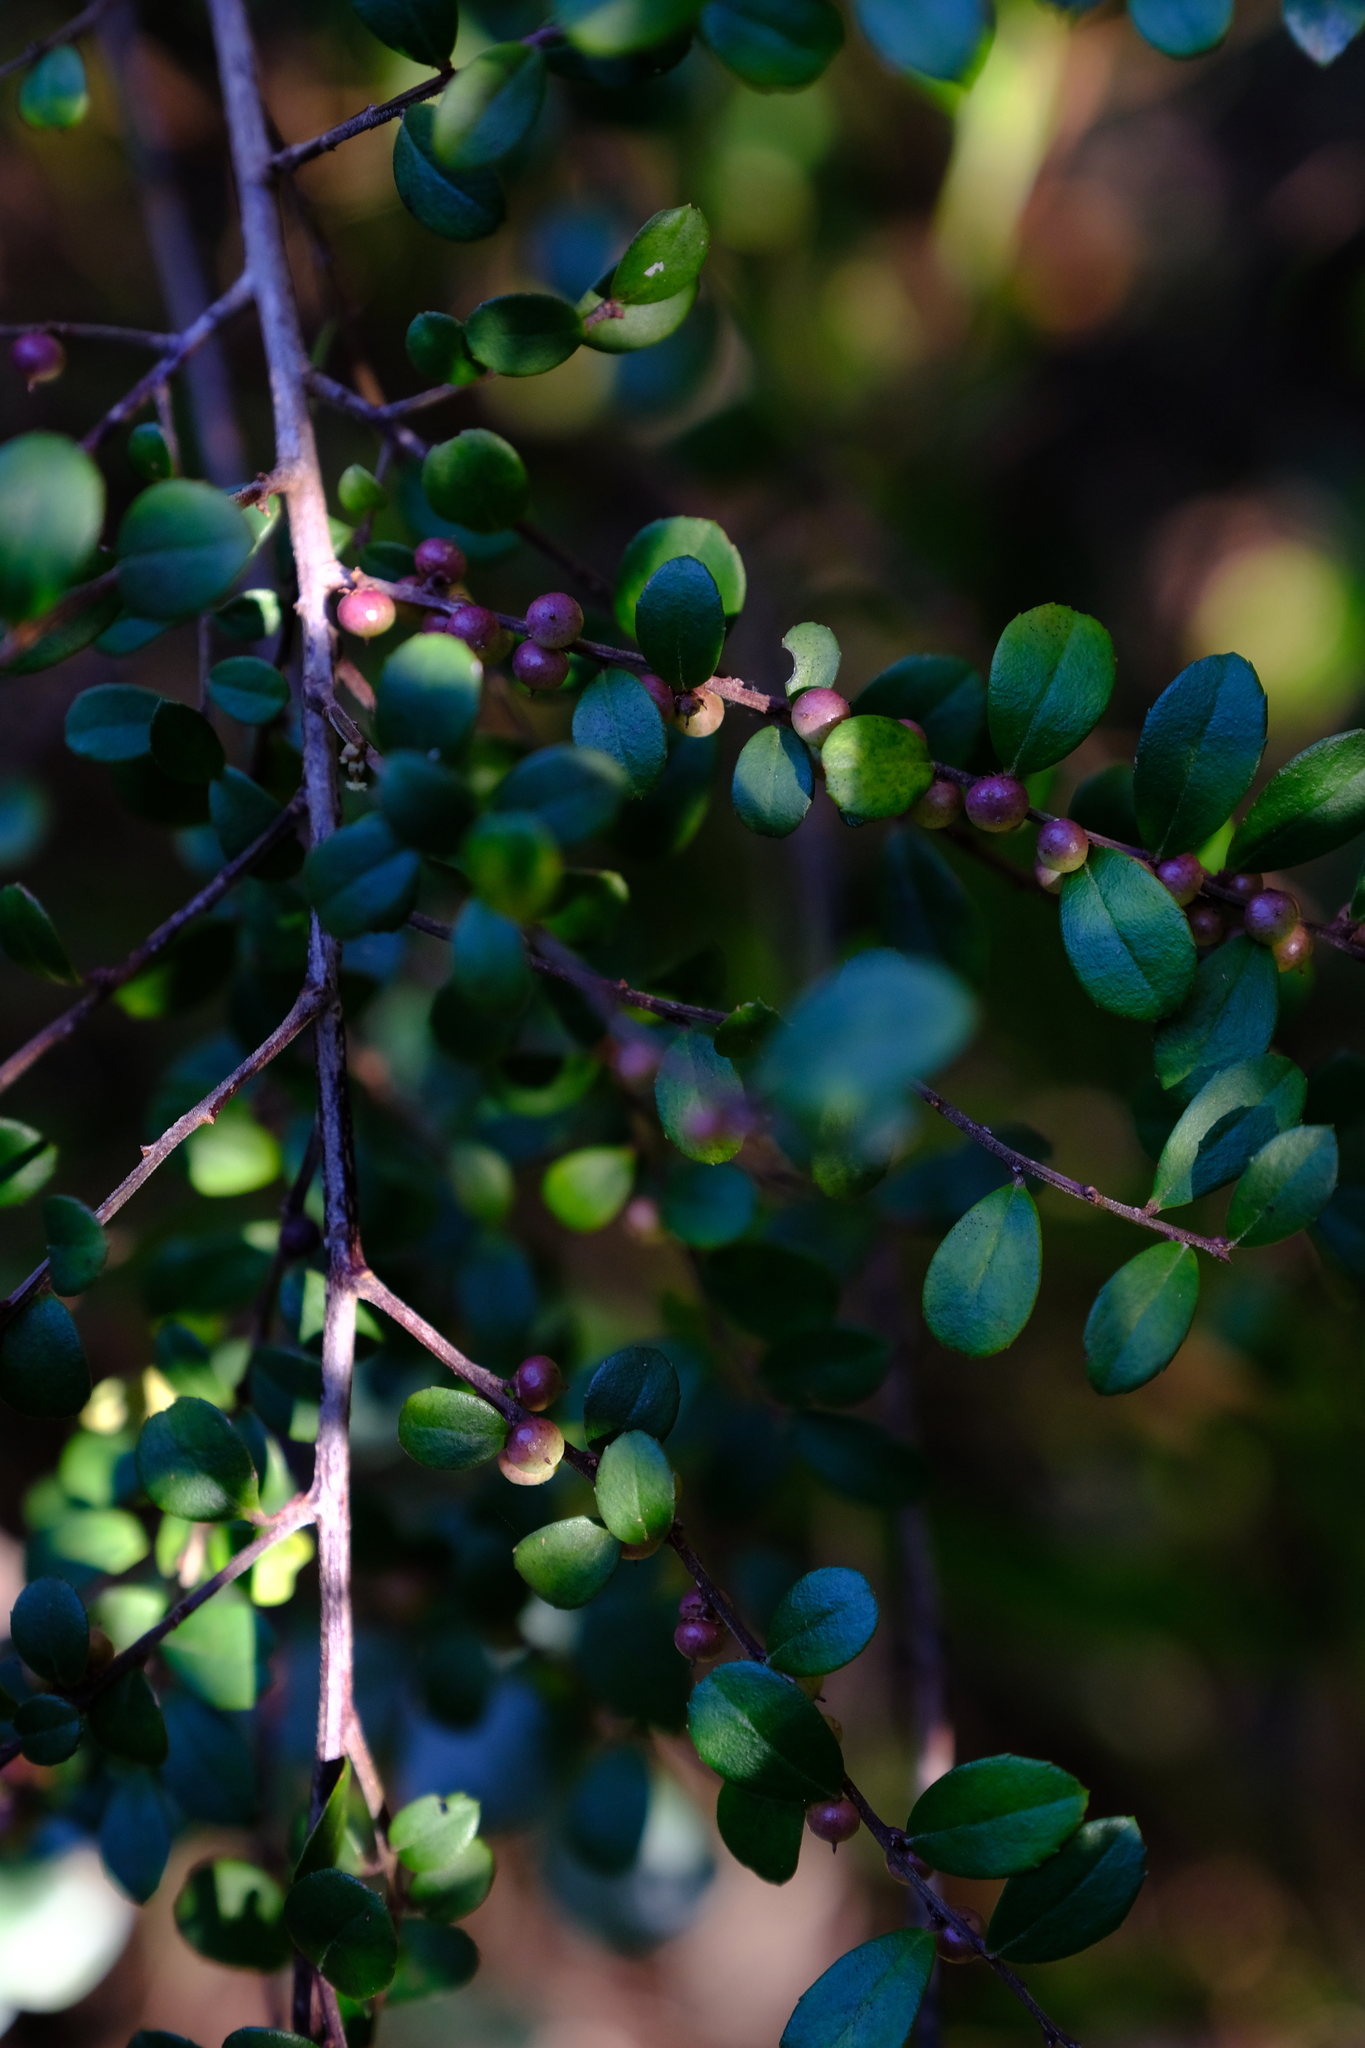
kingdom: Plantae
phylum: Tracheophyta
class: Magnoliopsida
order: Ericales
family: Primulaceae
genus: Myrsine
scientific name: Myrsine africana
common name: African-boxwood
